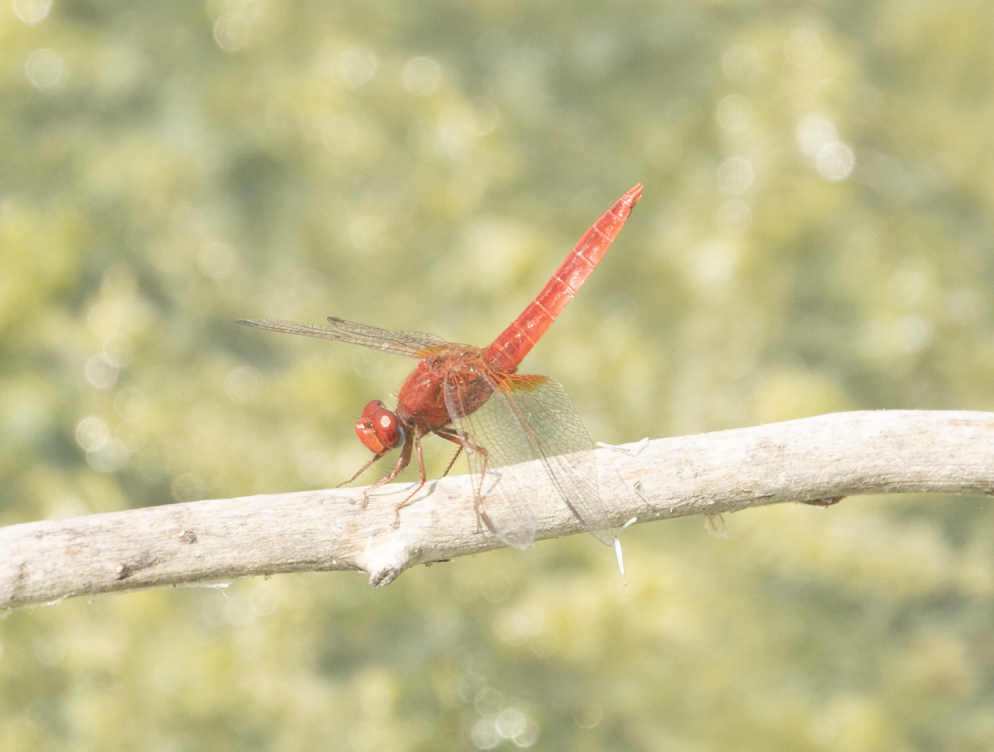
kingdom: Animalia
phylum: Arthropoda
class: Insecta
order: Odonata
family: Libellulidae
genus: Crocothemis
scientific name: Crocothemis erythraea
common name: Scarlet dragonfly
